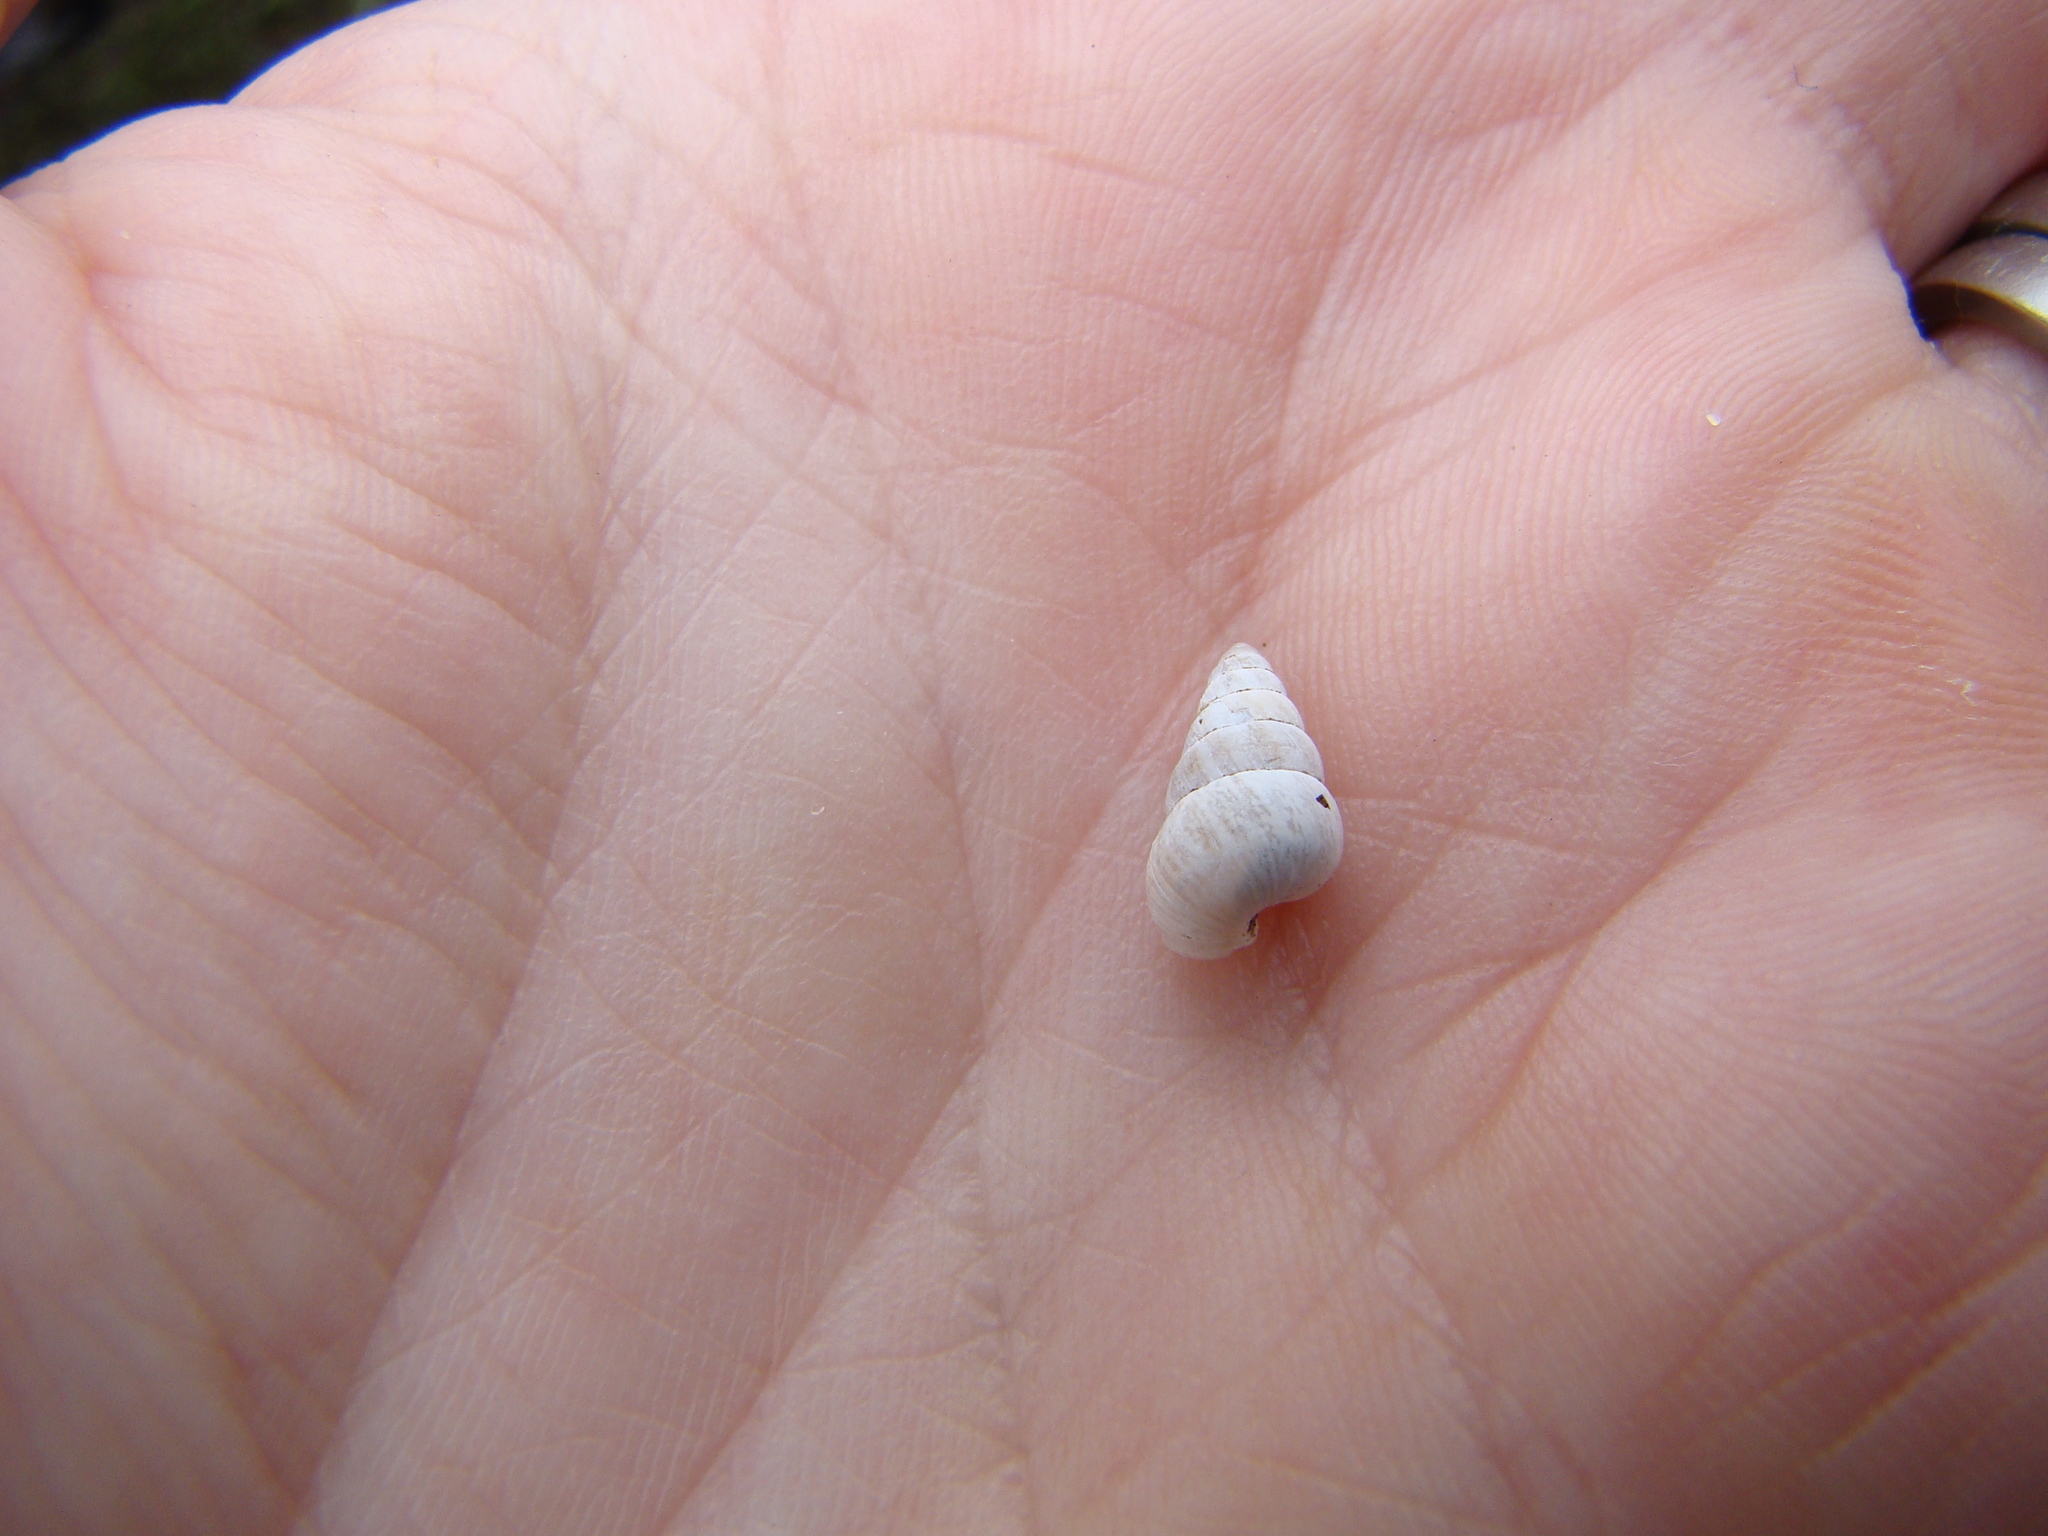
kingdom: Animalia
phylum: Mollusca
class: Gastropoda
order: Stylommatophora
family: Geomitridae
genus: Cochlicella
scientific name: Cochlicella barbara
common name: Potbellied helicellid
